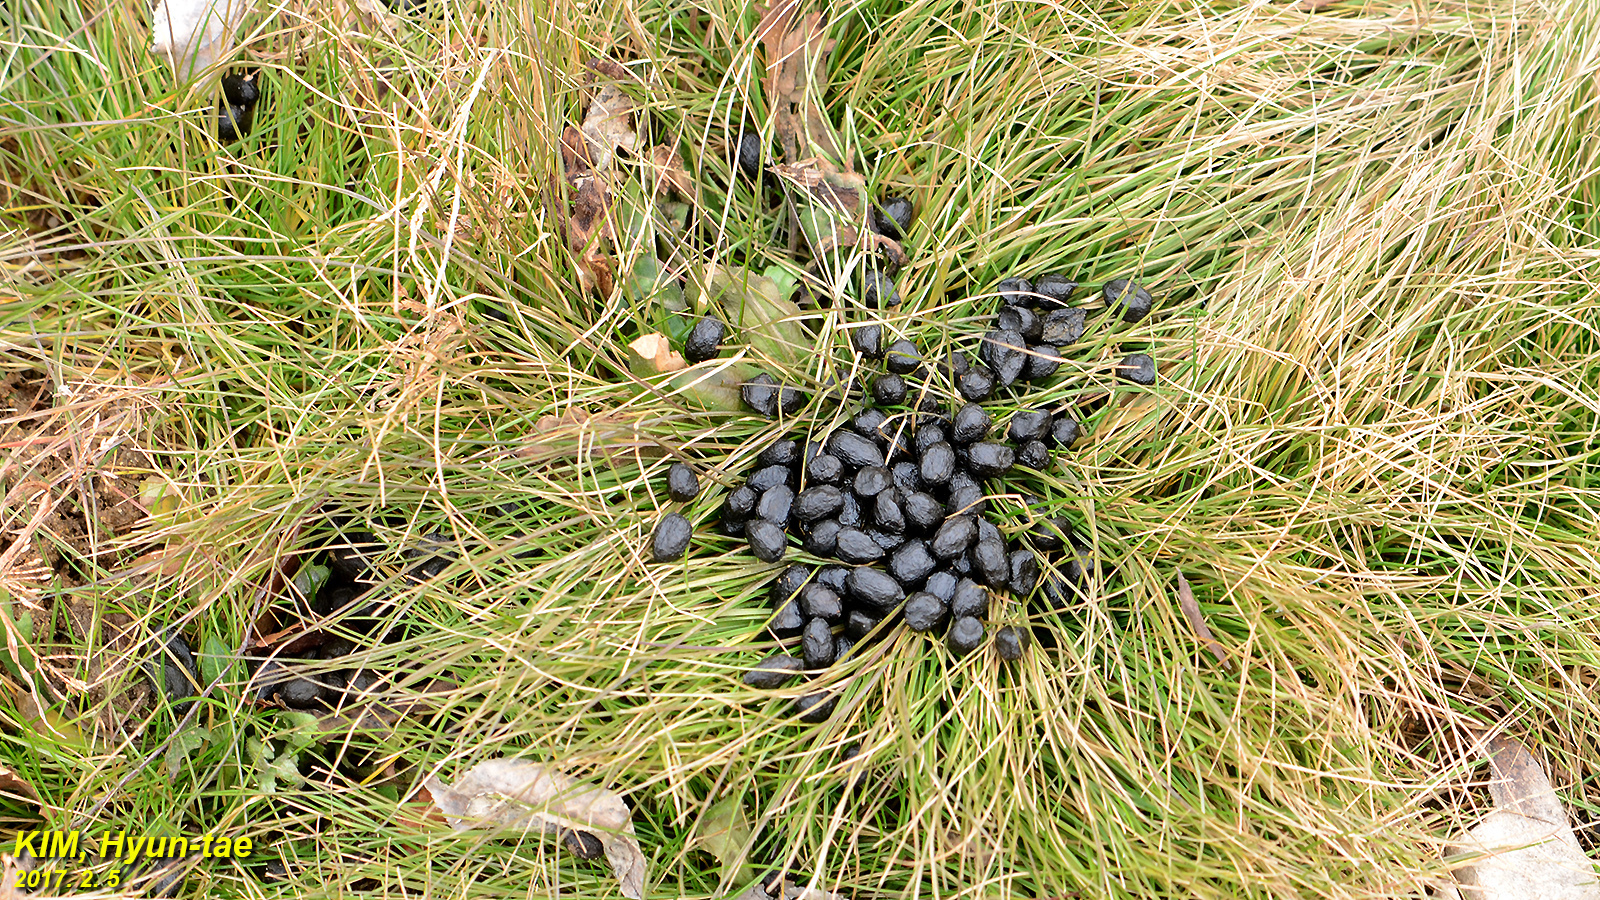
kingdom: Animalia
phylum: Chordata
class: Mammalia
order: Artiodactyla
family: Cervidae
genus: Hydropotes
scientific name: Hydropotes inermis
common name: Chinese water deer
